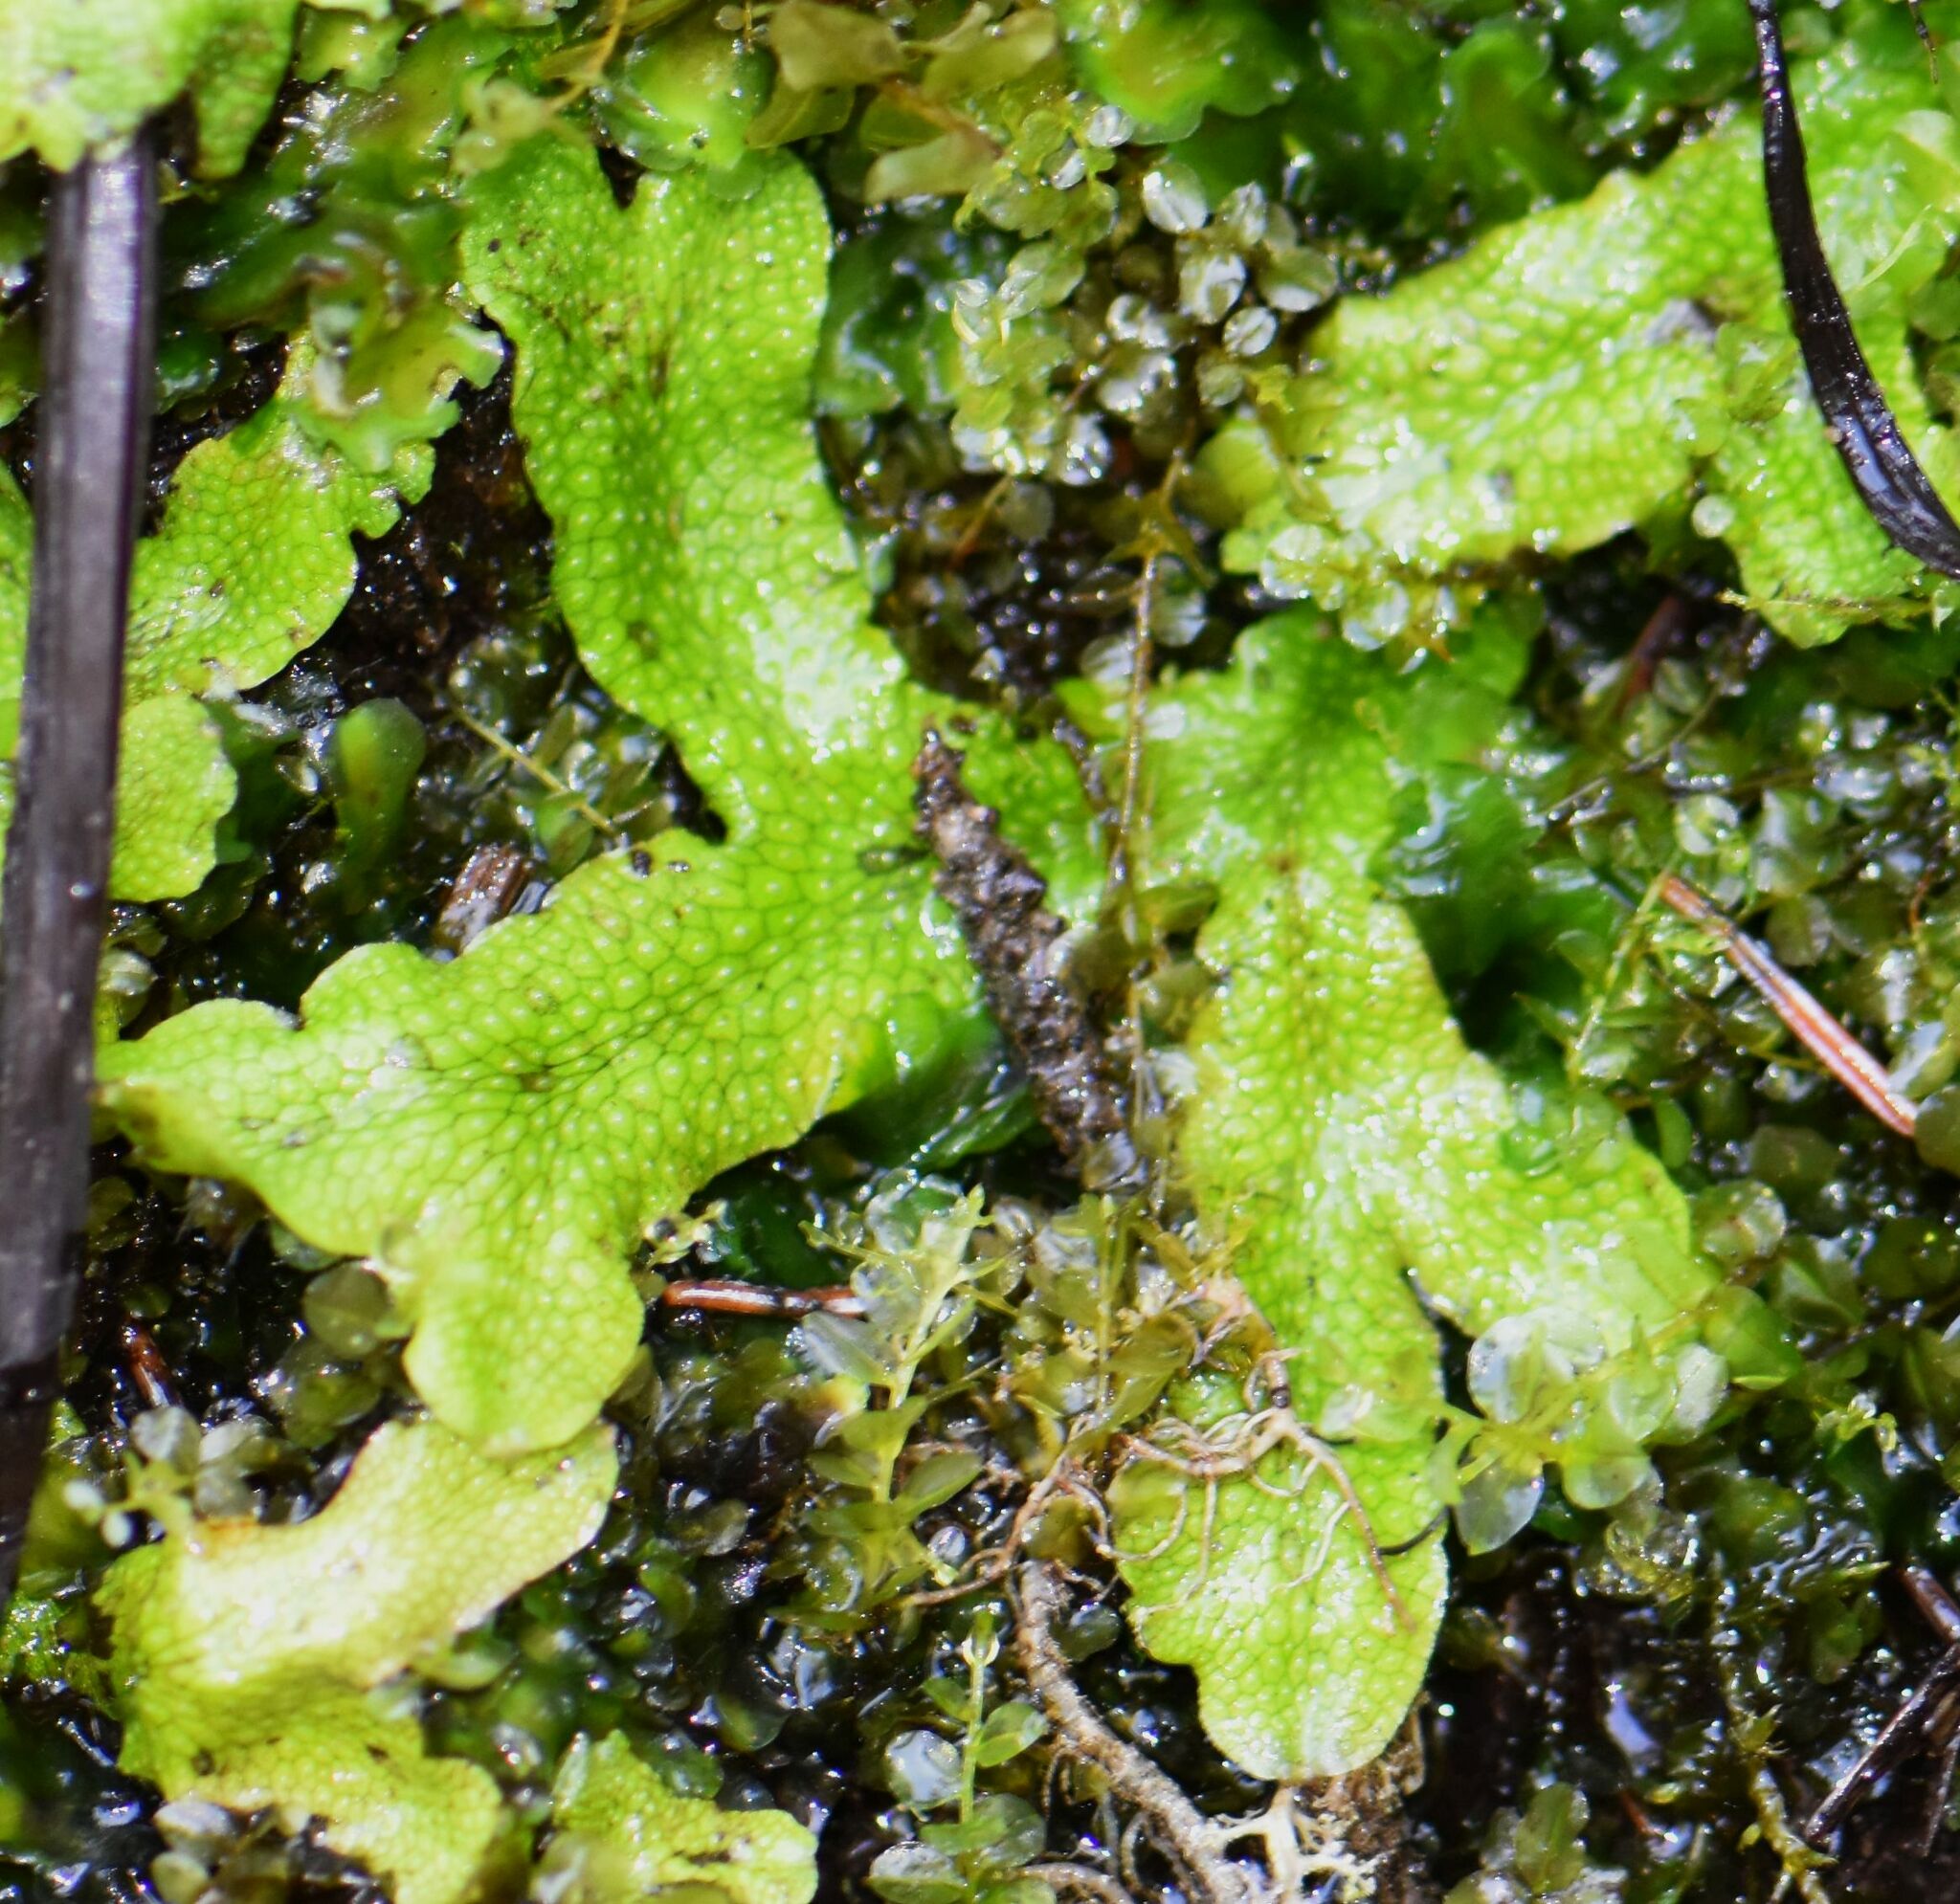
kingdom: Plantae
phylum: Marchantiophyta
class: Marchantiopsida
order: Marchantiales
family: Conocephalaceae
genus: Conocephalum
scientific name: Conocephalum salebrosum
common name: Cat-tongue liverwort
